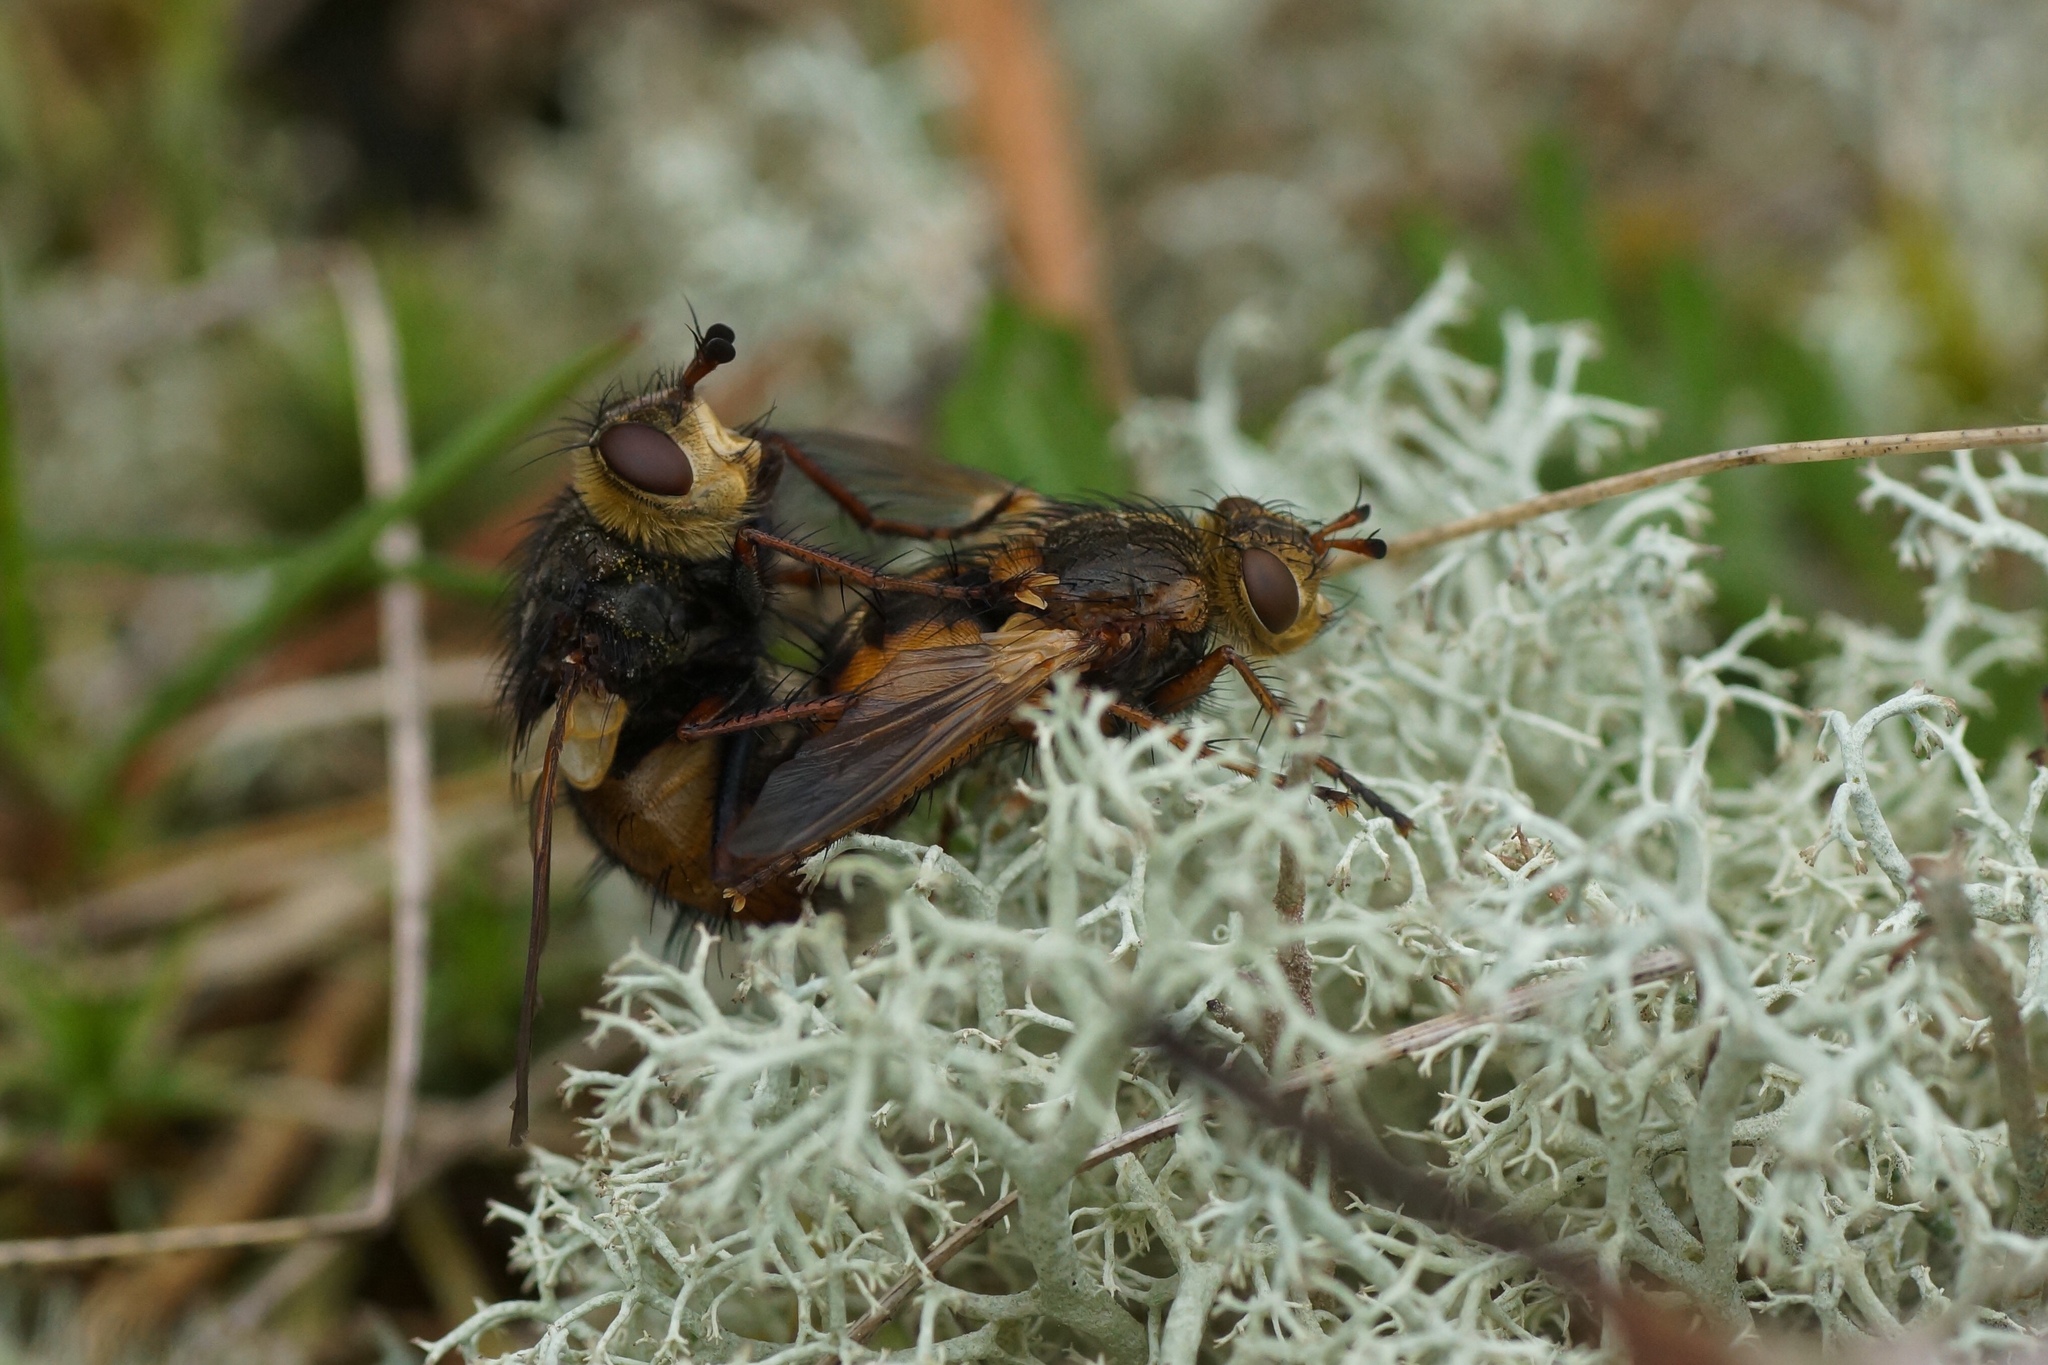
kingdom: Animalia
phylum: Arthropoda
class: Insecta
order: Diptera
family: Tachinidae
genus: Tachina
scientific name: Tachina fera
